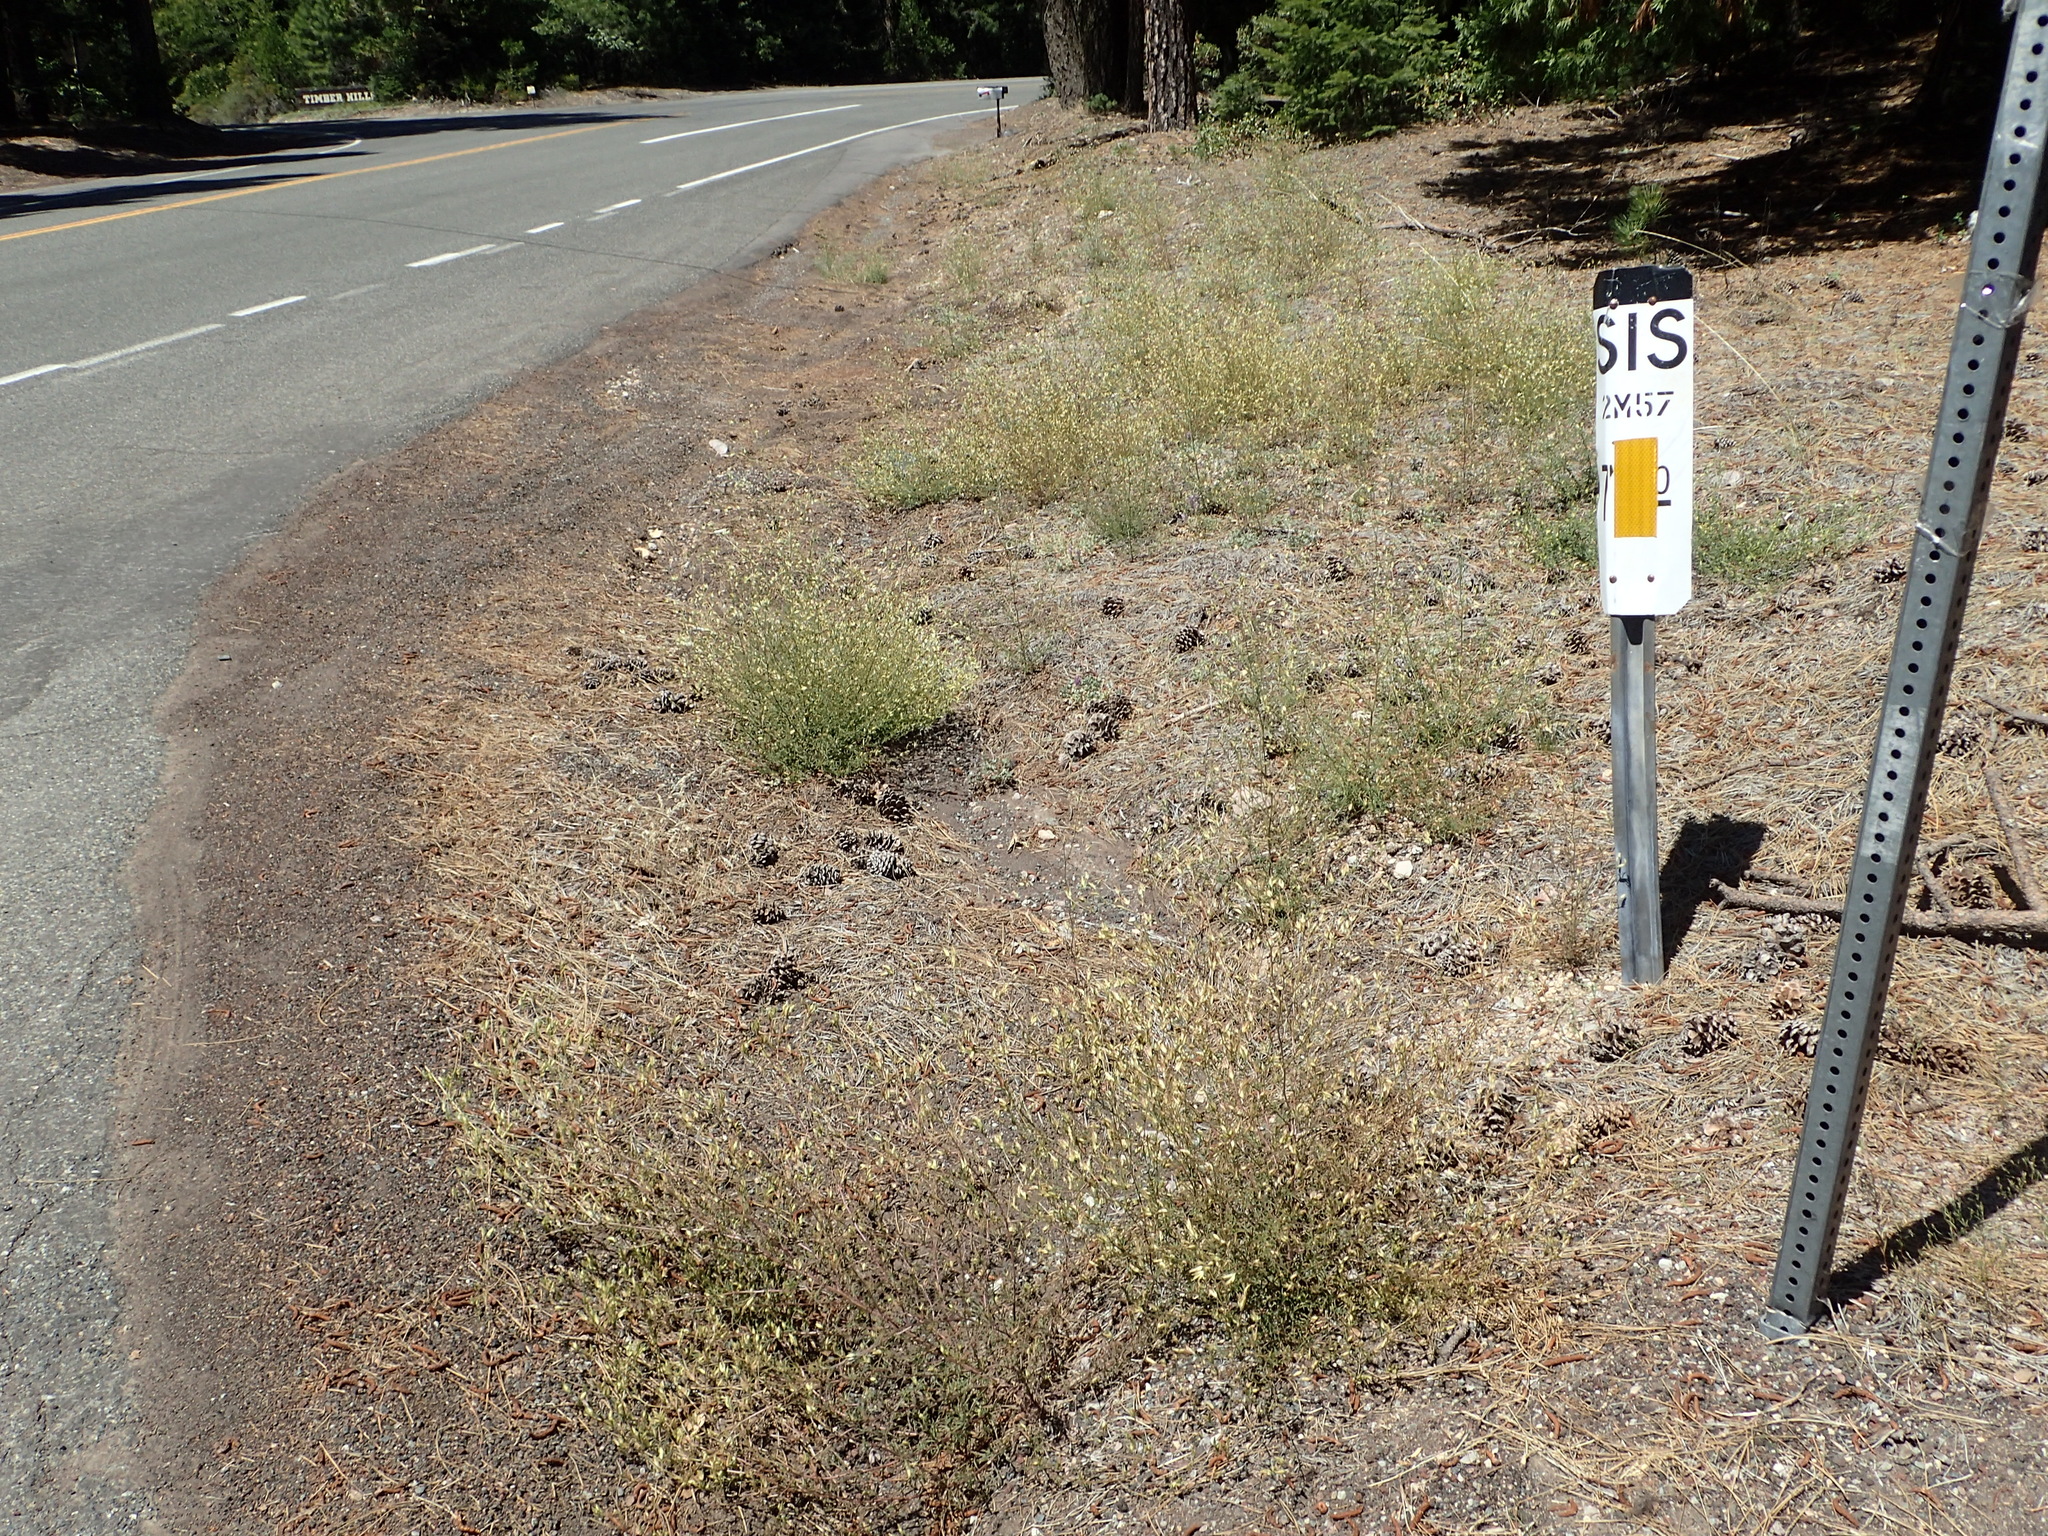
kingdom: Plantae
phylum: Tracheophyta
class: Magnoliopsida
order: Lamiales
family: Orobanchaceae
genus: Cordylanthus
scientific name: Cordylanthus tenuis
